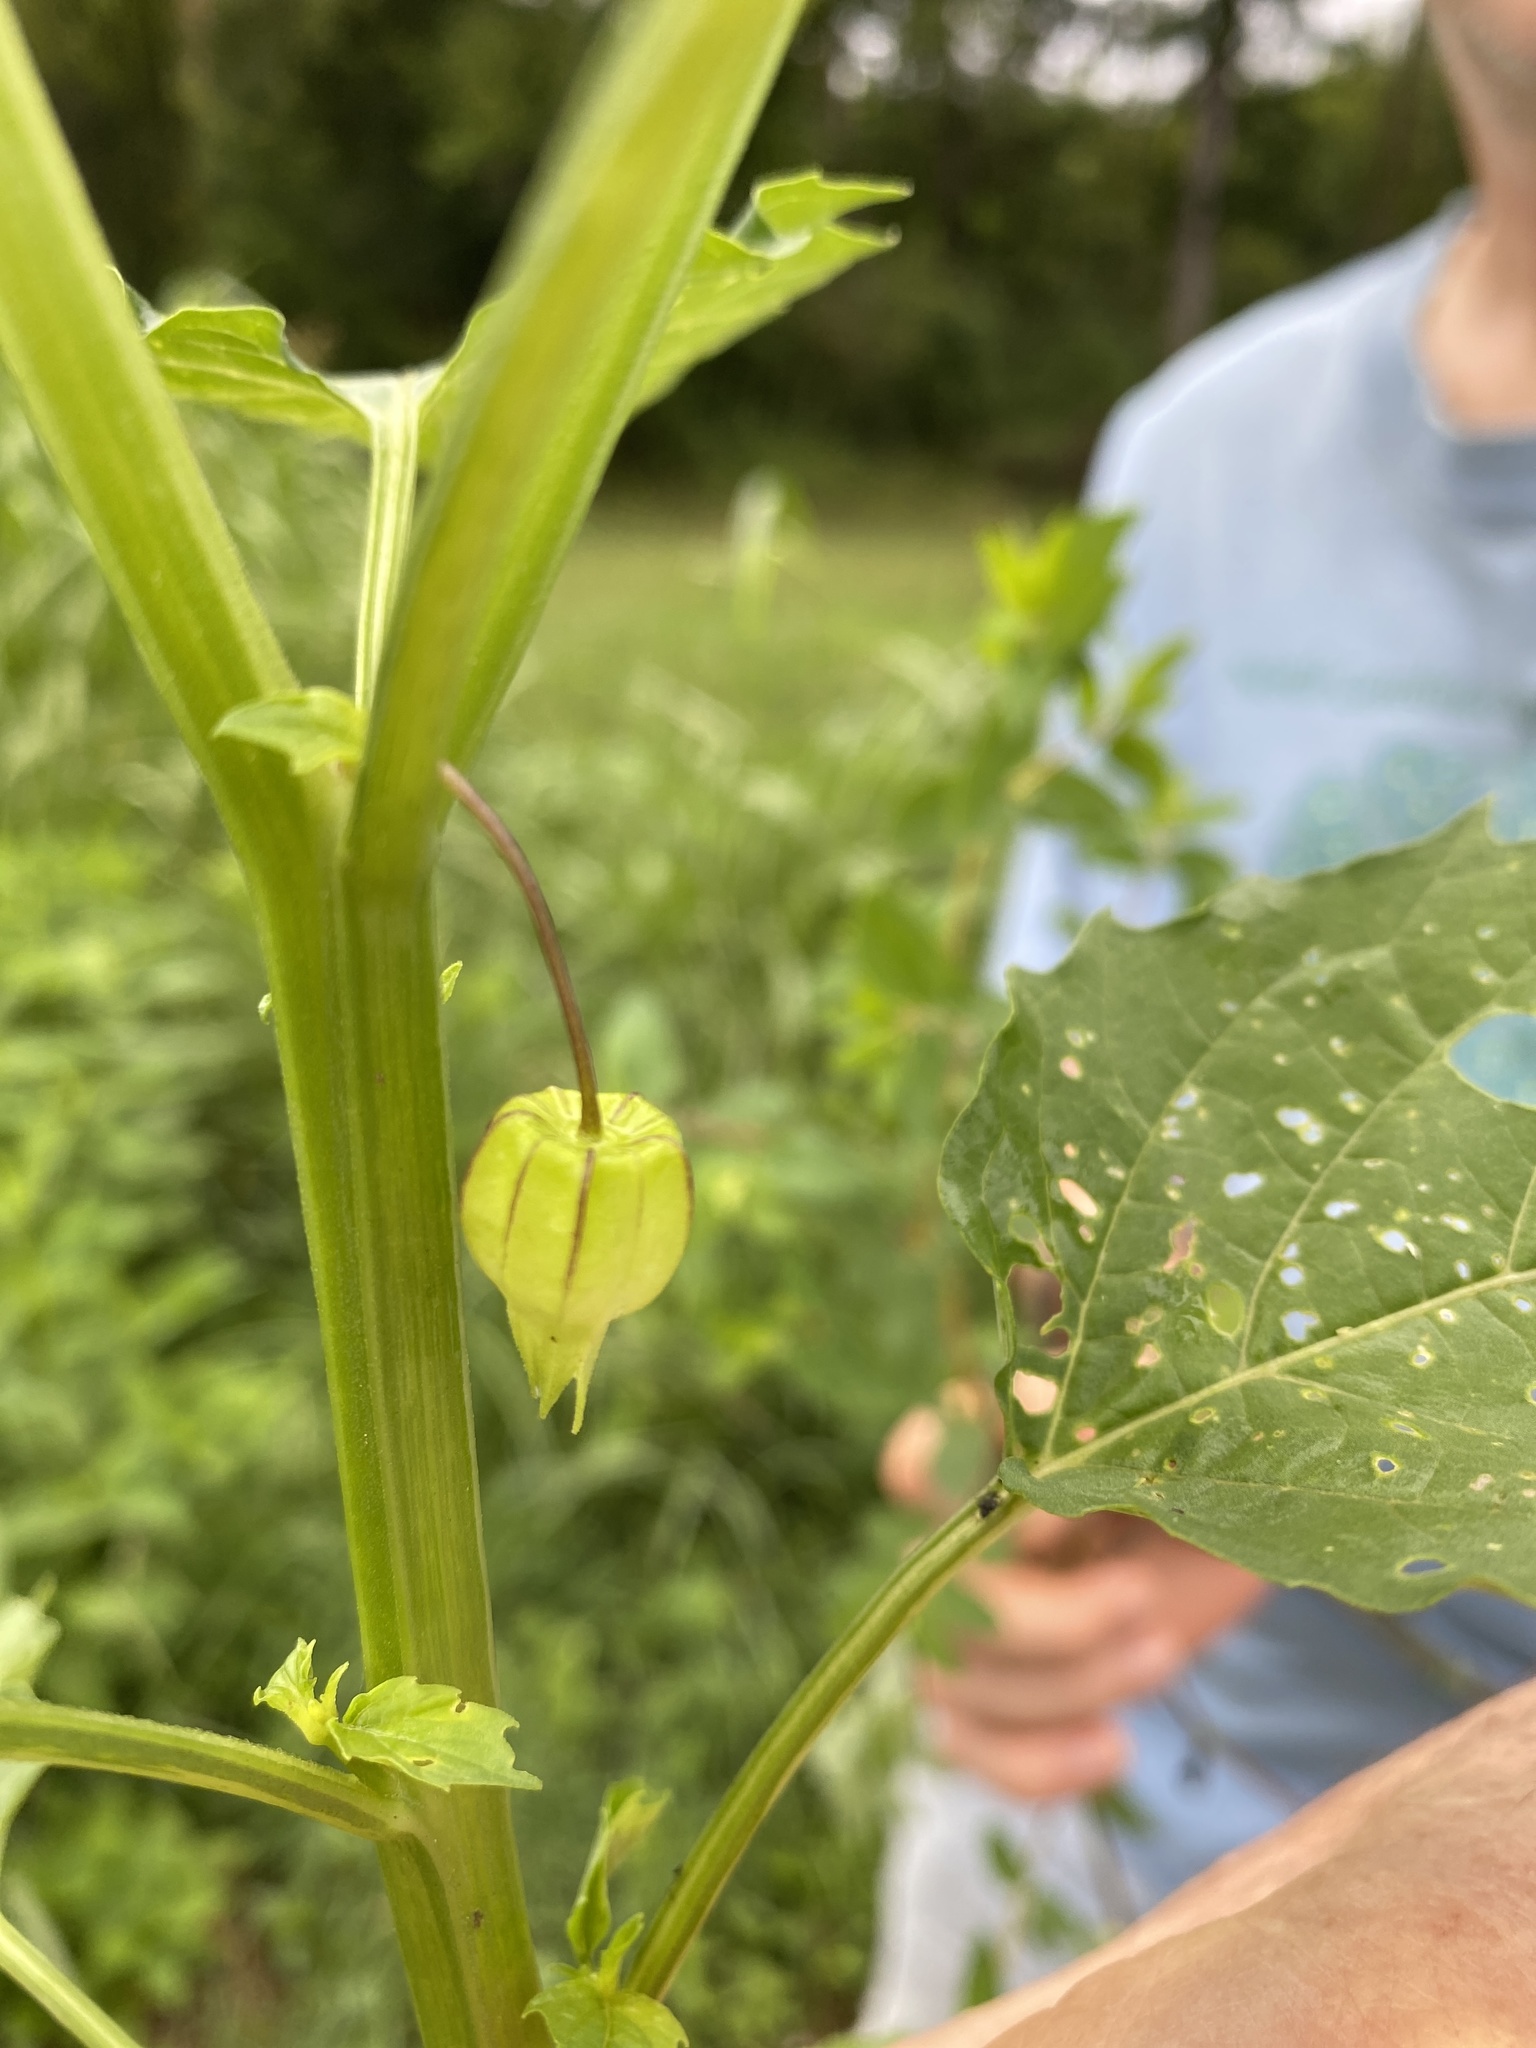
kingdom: Plantae
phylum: Tracheophyta
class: Magnoliopsida
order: Solanales
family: Solanaceae
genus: Physalis
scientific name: Physalis angulata
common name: Angular winter-cherry
